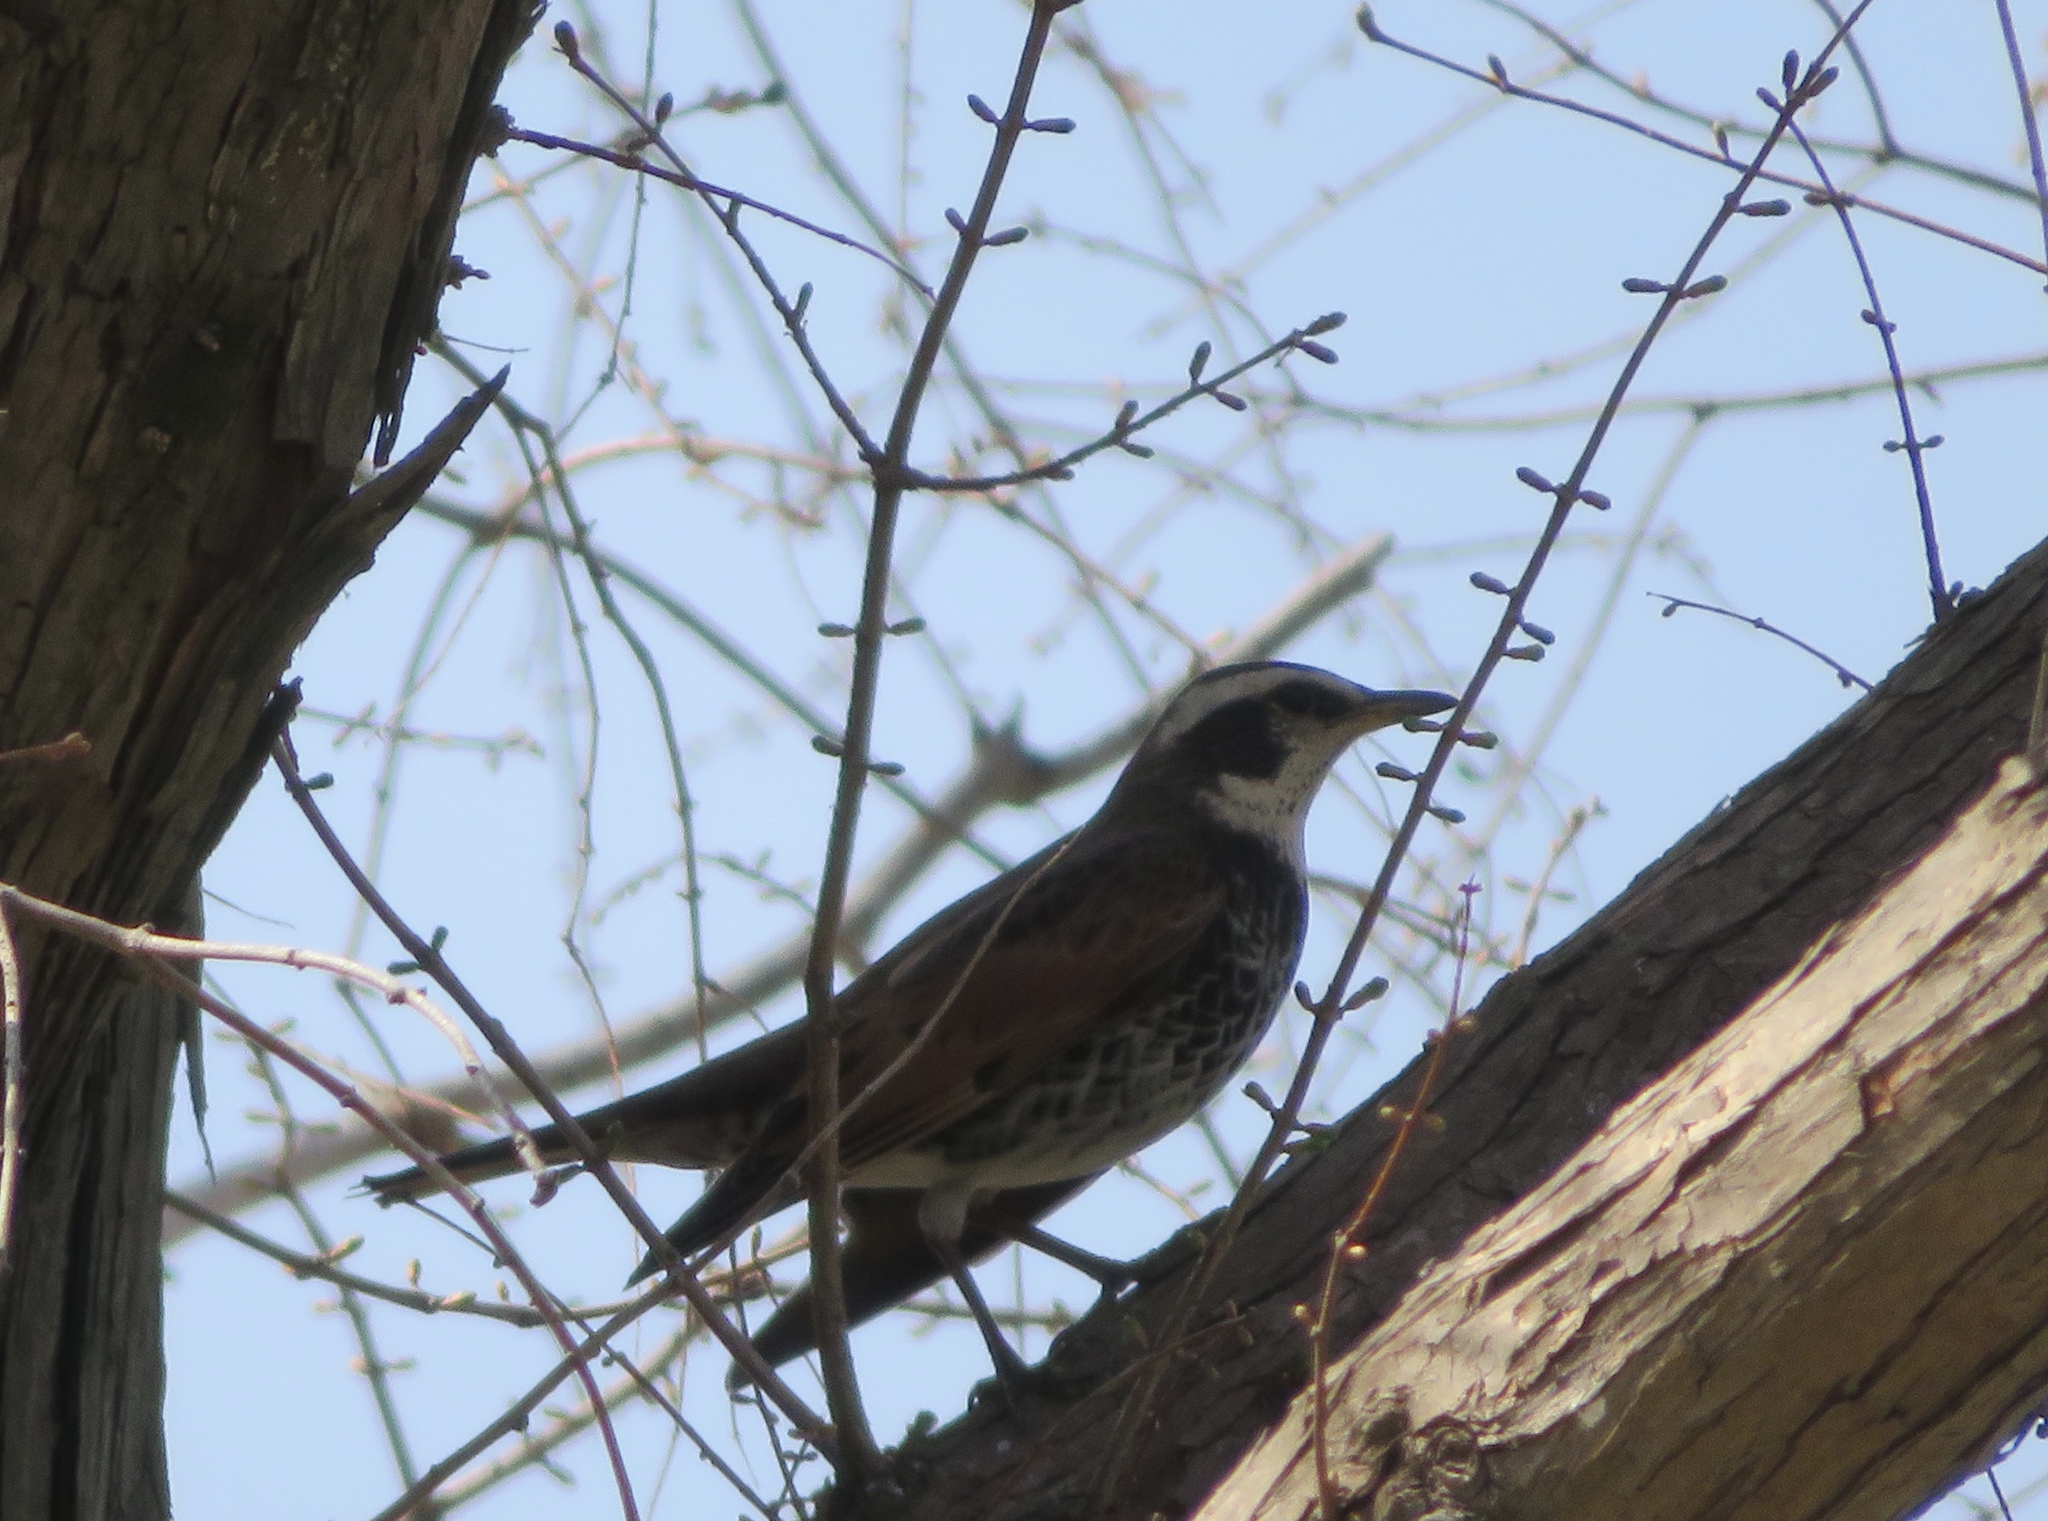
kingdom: Animalia
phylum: Chordata
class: Aves
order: Passeriformes
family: Turdidae
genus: Turdus
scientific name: Turdus eunomus
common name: Dusky thrush
